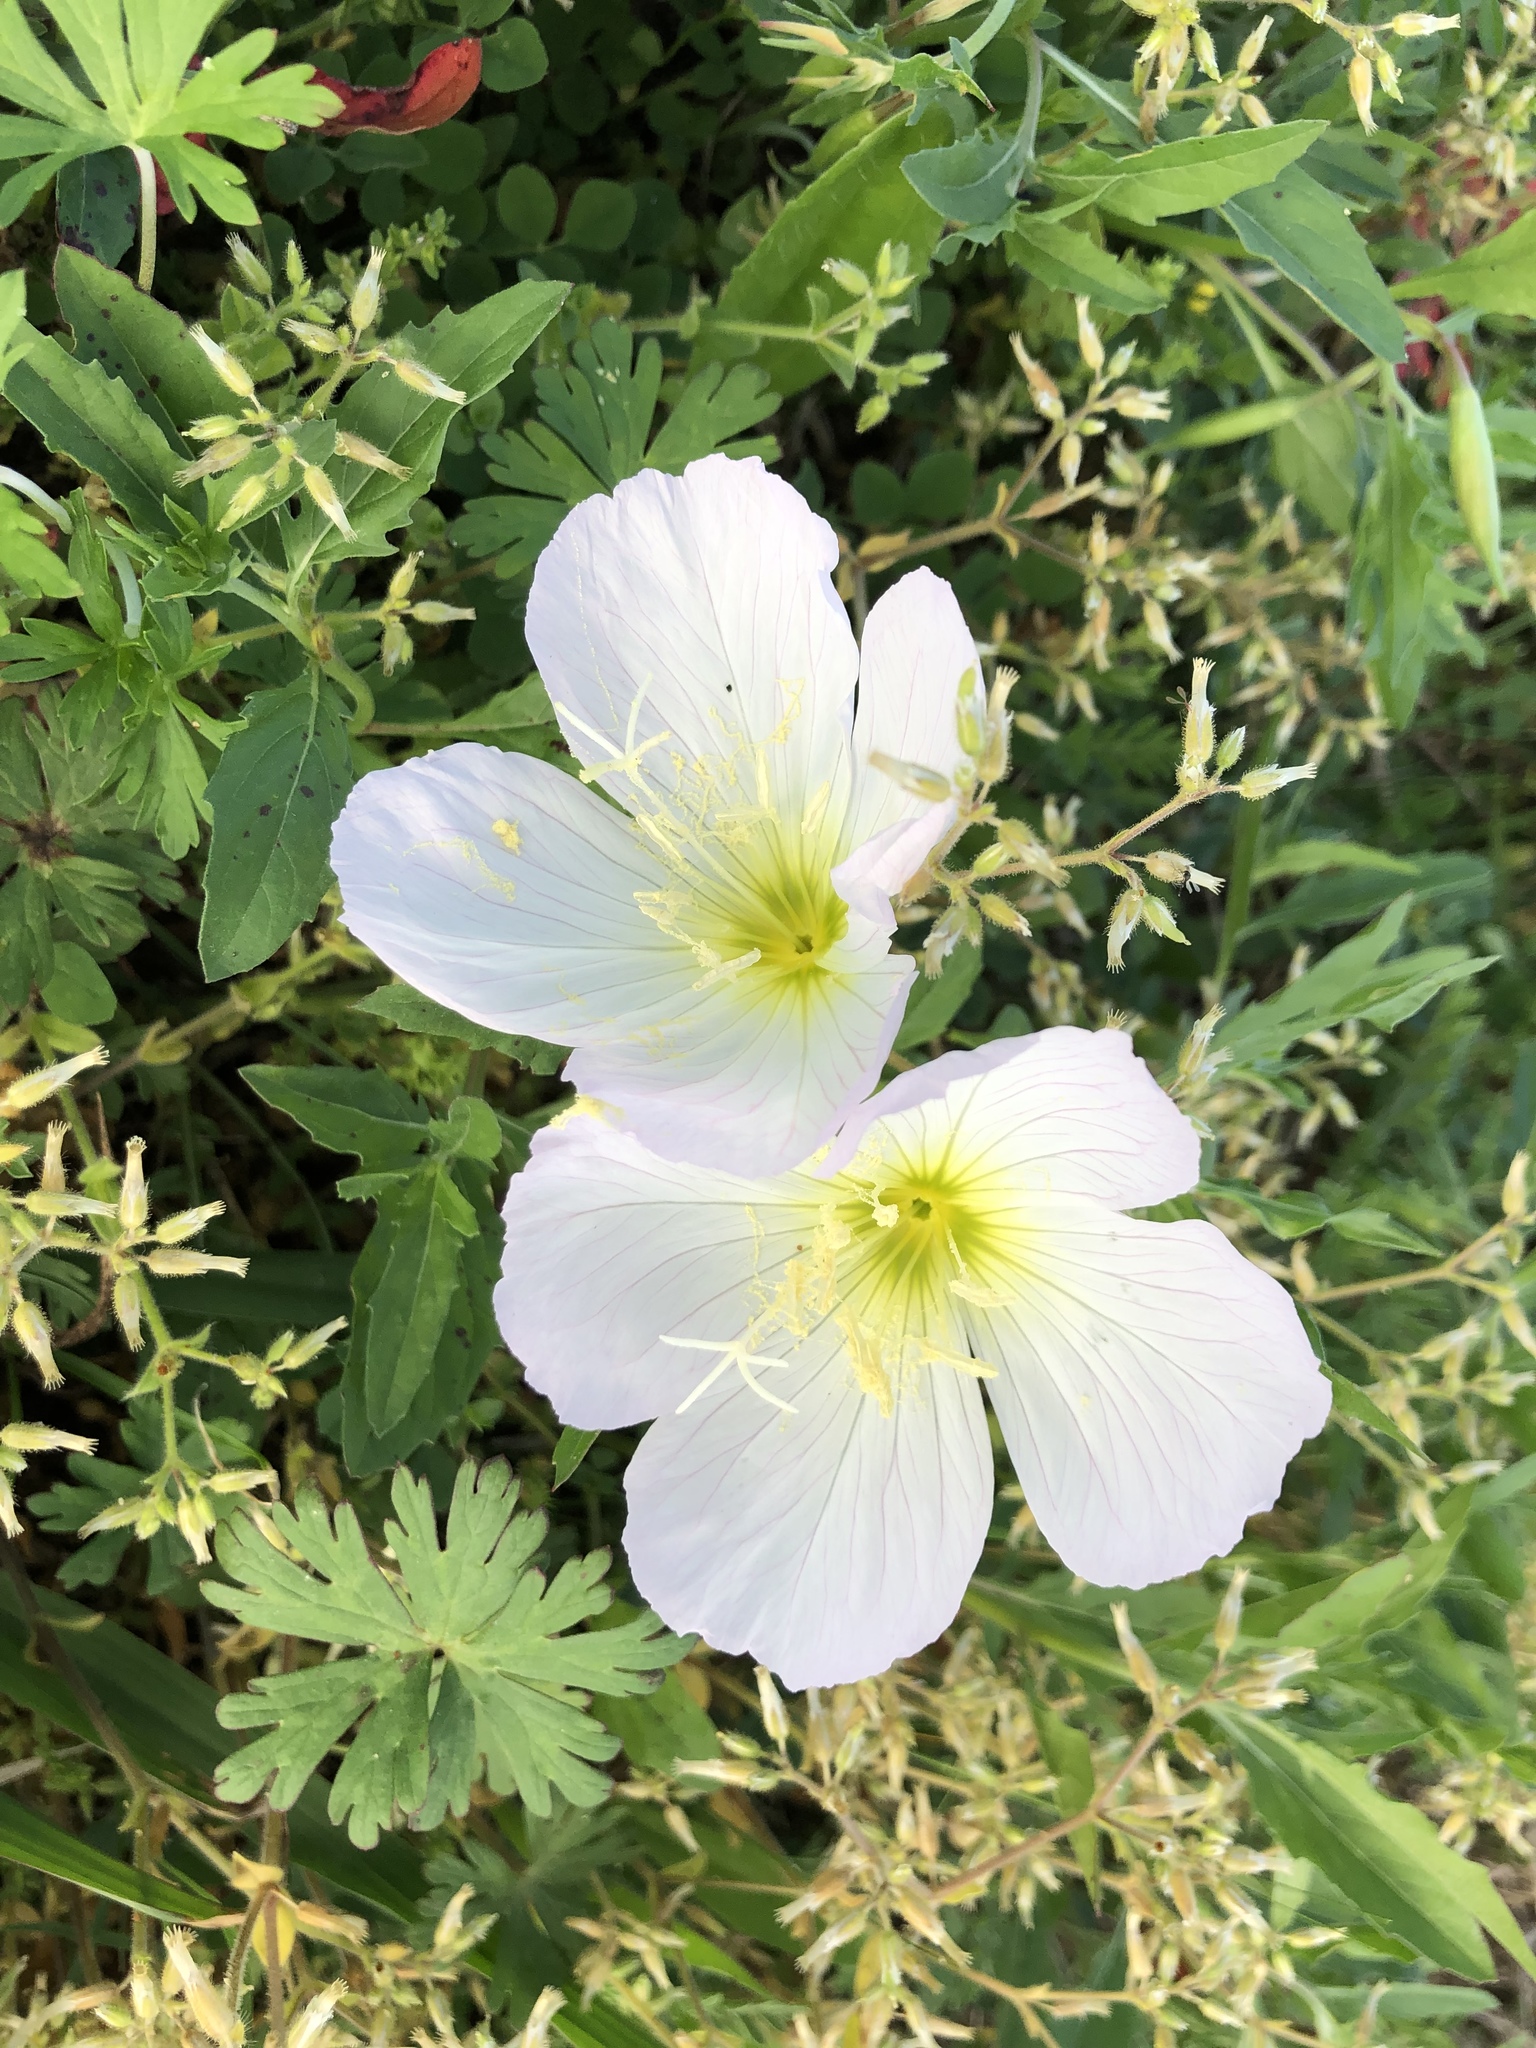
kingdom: Plantae
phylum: Tracheophyta
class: Magnoliopsida
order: Myrtales
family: Onagraceae
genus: Oenothera
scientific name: Oenothera speciosa
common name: White evening-primrose
